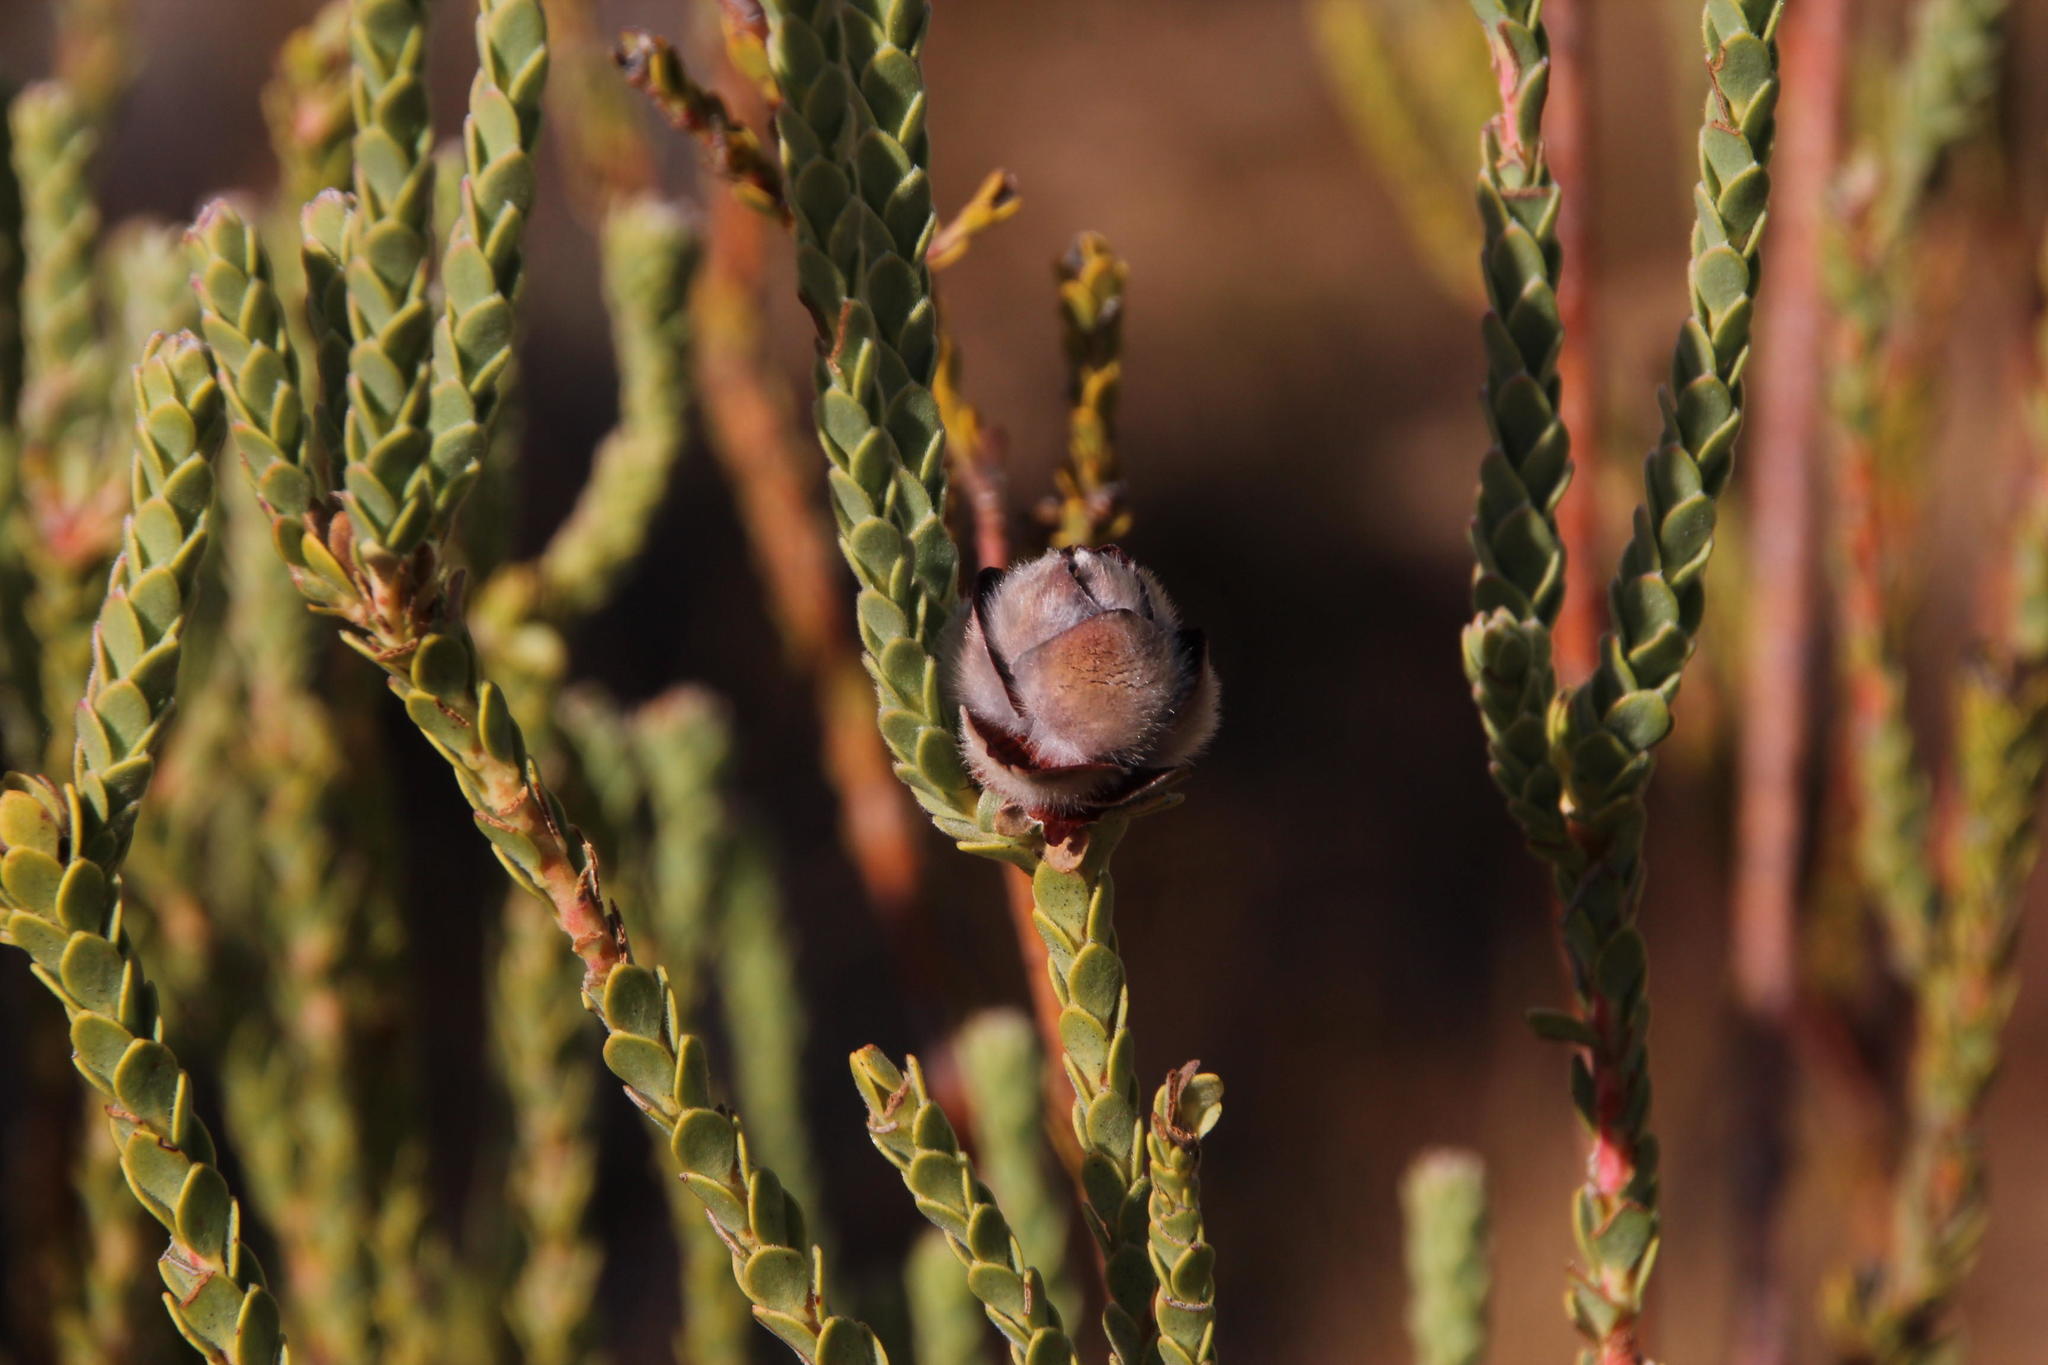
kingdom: Plantae
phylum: Tracheophyta
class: Magnoliopsida
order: Proteales
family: Proteaceae
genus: Leucadendron
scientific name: Leucadendron dubium
